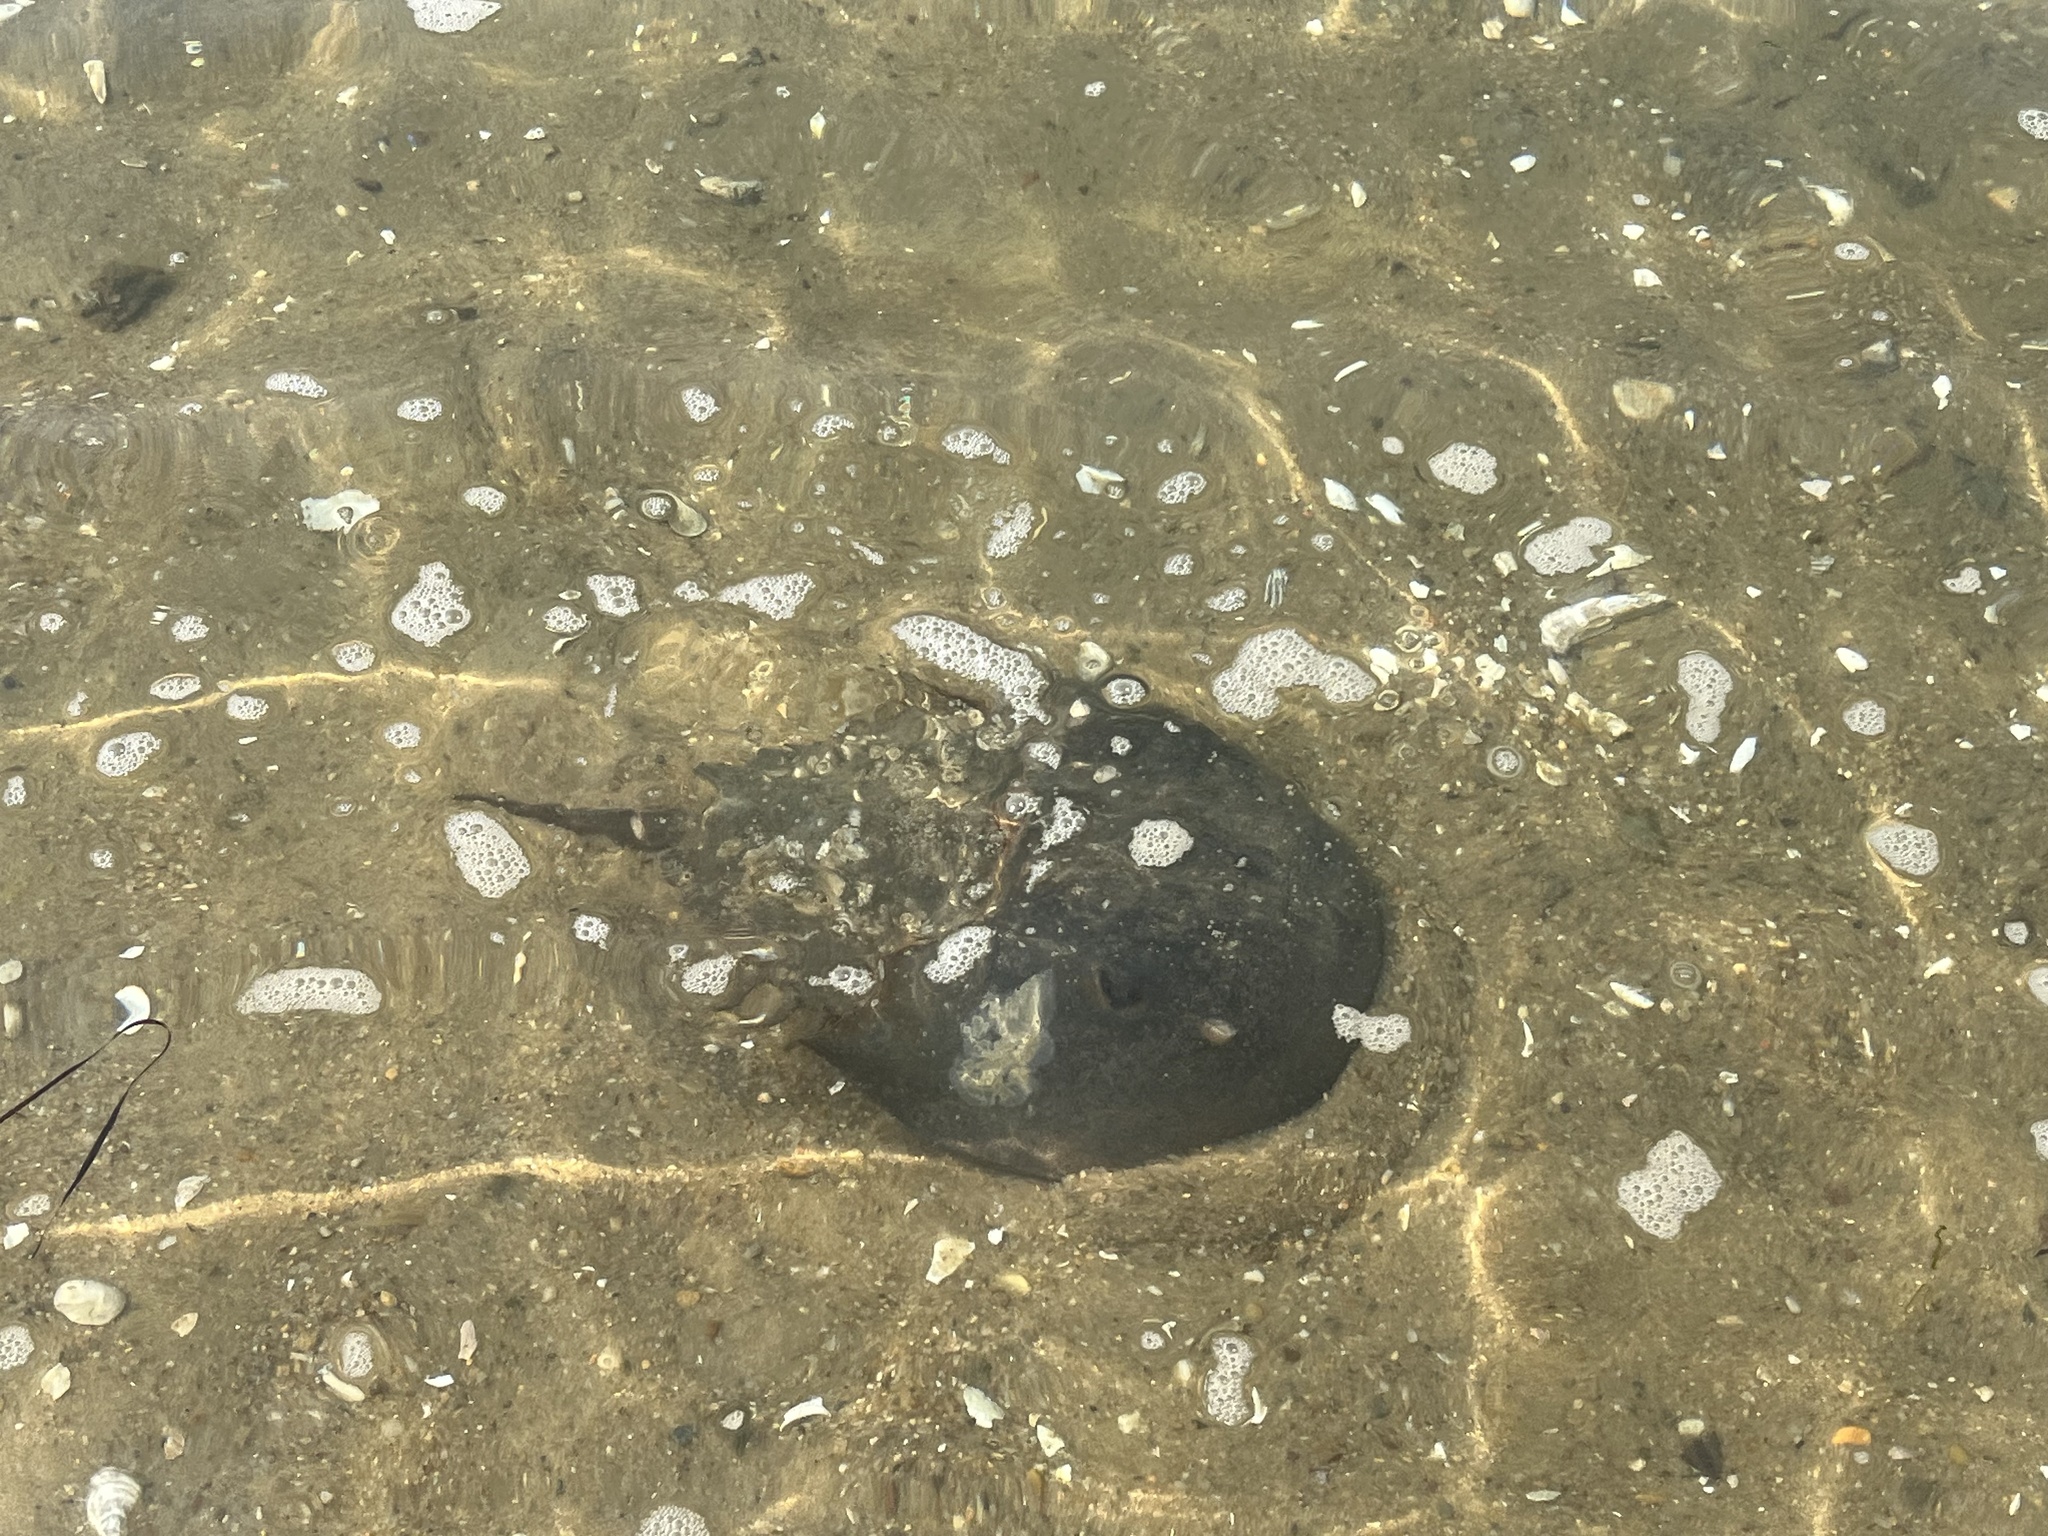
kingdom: Animalia
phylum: Arthropoda
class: Merostomata
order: Xiphosurida
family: Limulidae
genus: Limulus
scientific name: Limulus polyphemus
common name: Horseshoe crab
